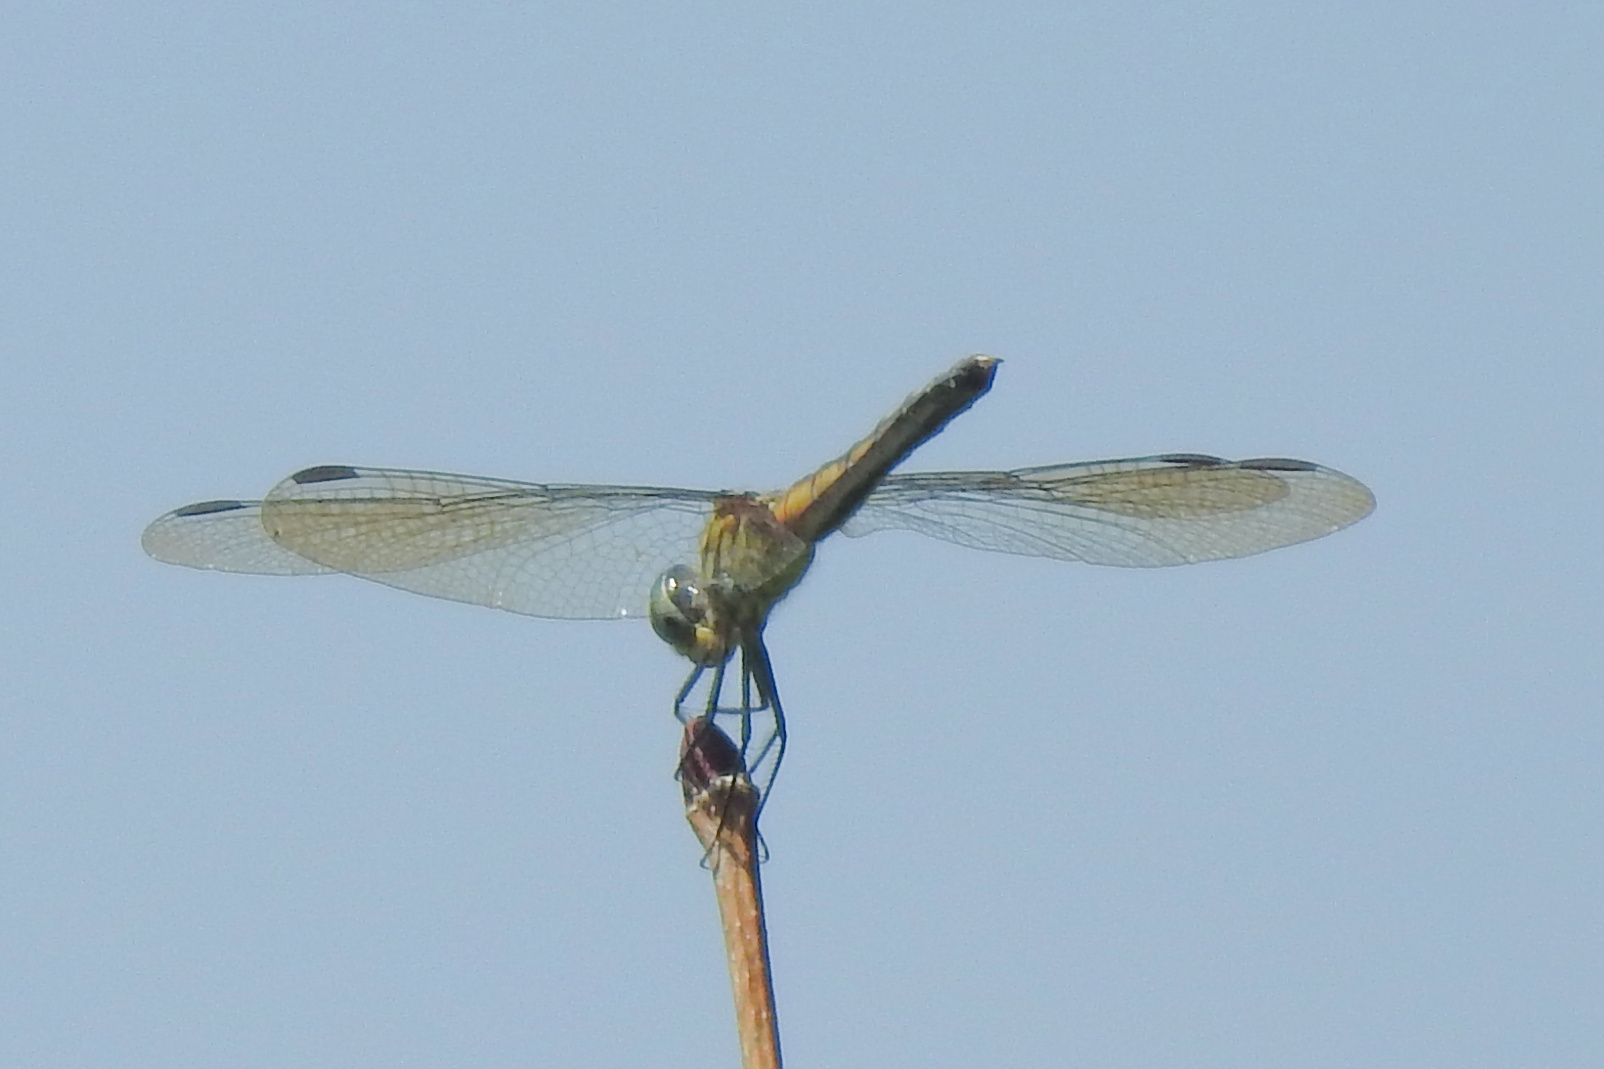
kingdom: Animalia
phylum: Arthropoda
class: Insecta
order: Odonata
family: Libellulidae
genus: Pachydiplax
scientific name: Pachydiplax longipennis
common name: Blue dasher
